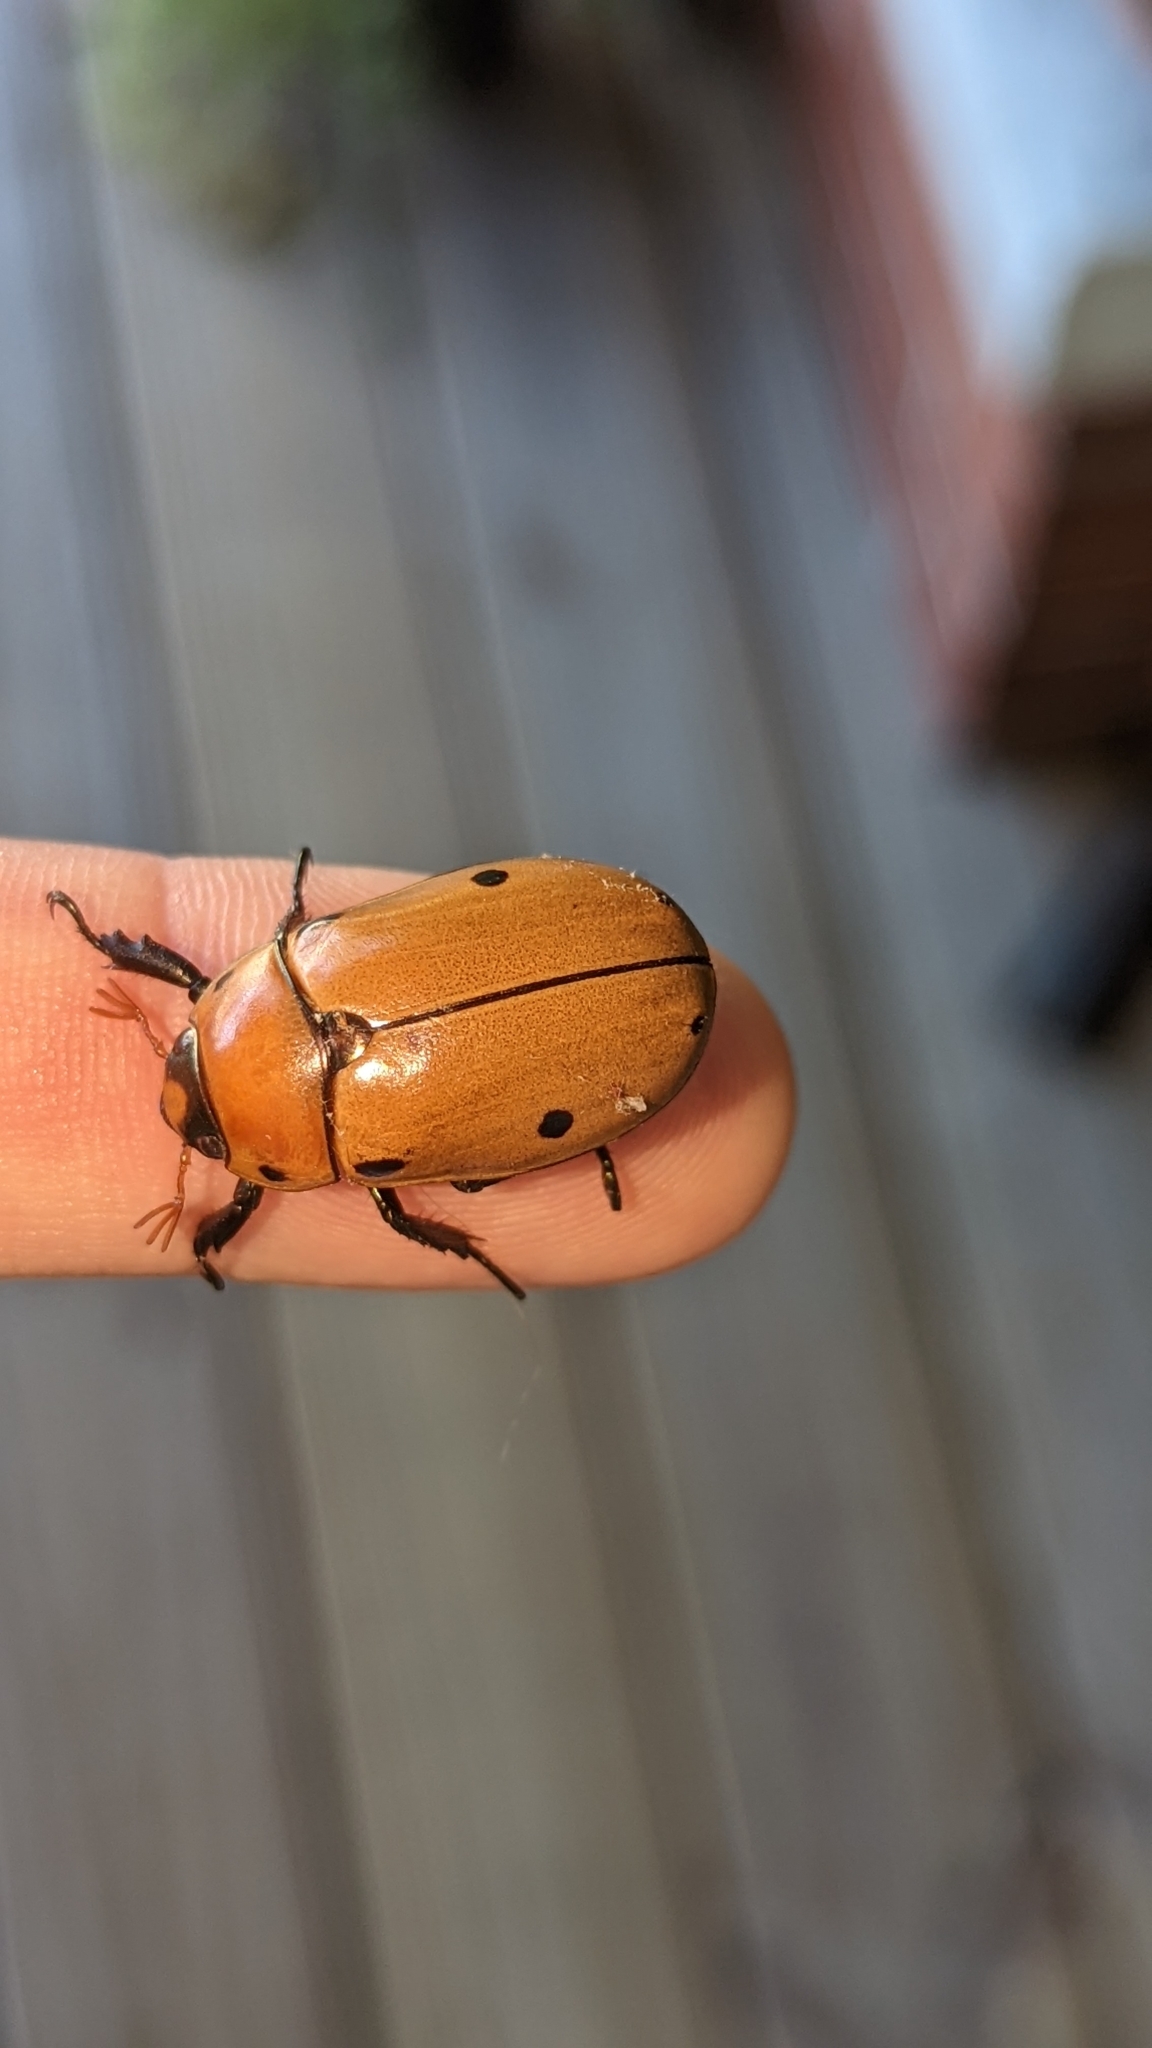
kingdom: Animalia
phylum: Arthropoda
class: Insecta
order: Coleoptera
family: Scarabaeidae
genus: Pelidnota
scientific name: Pelidnota punctata
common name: Grapevine beetle
